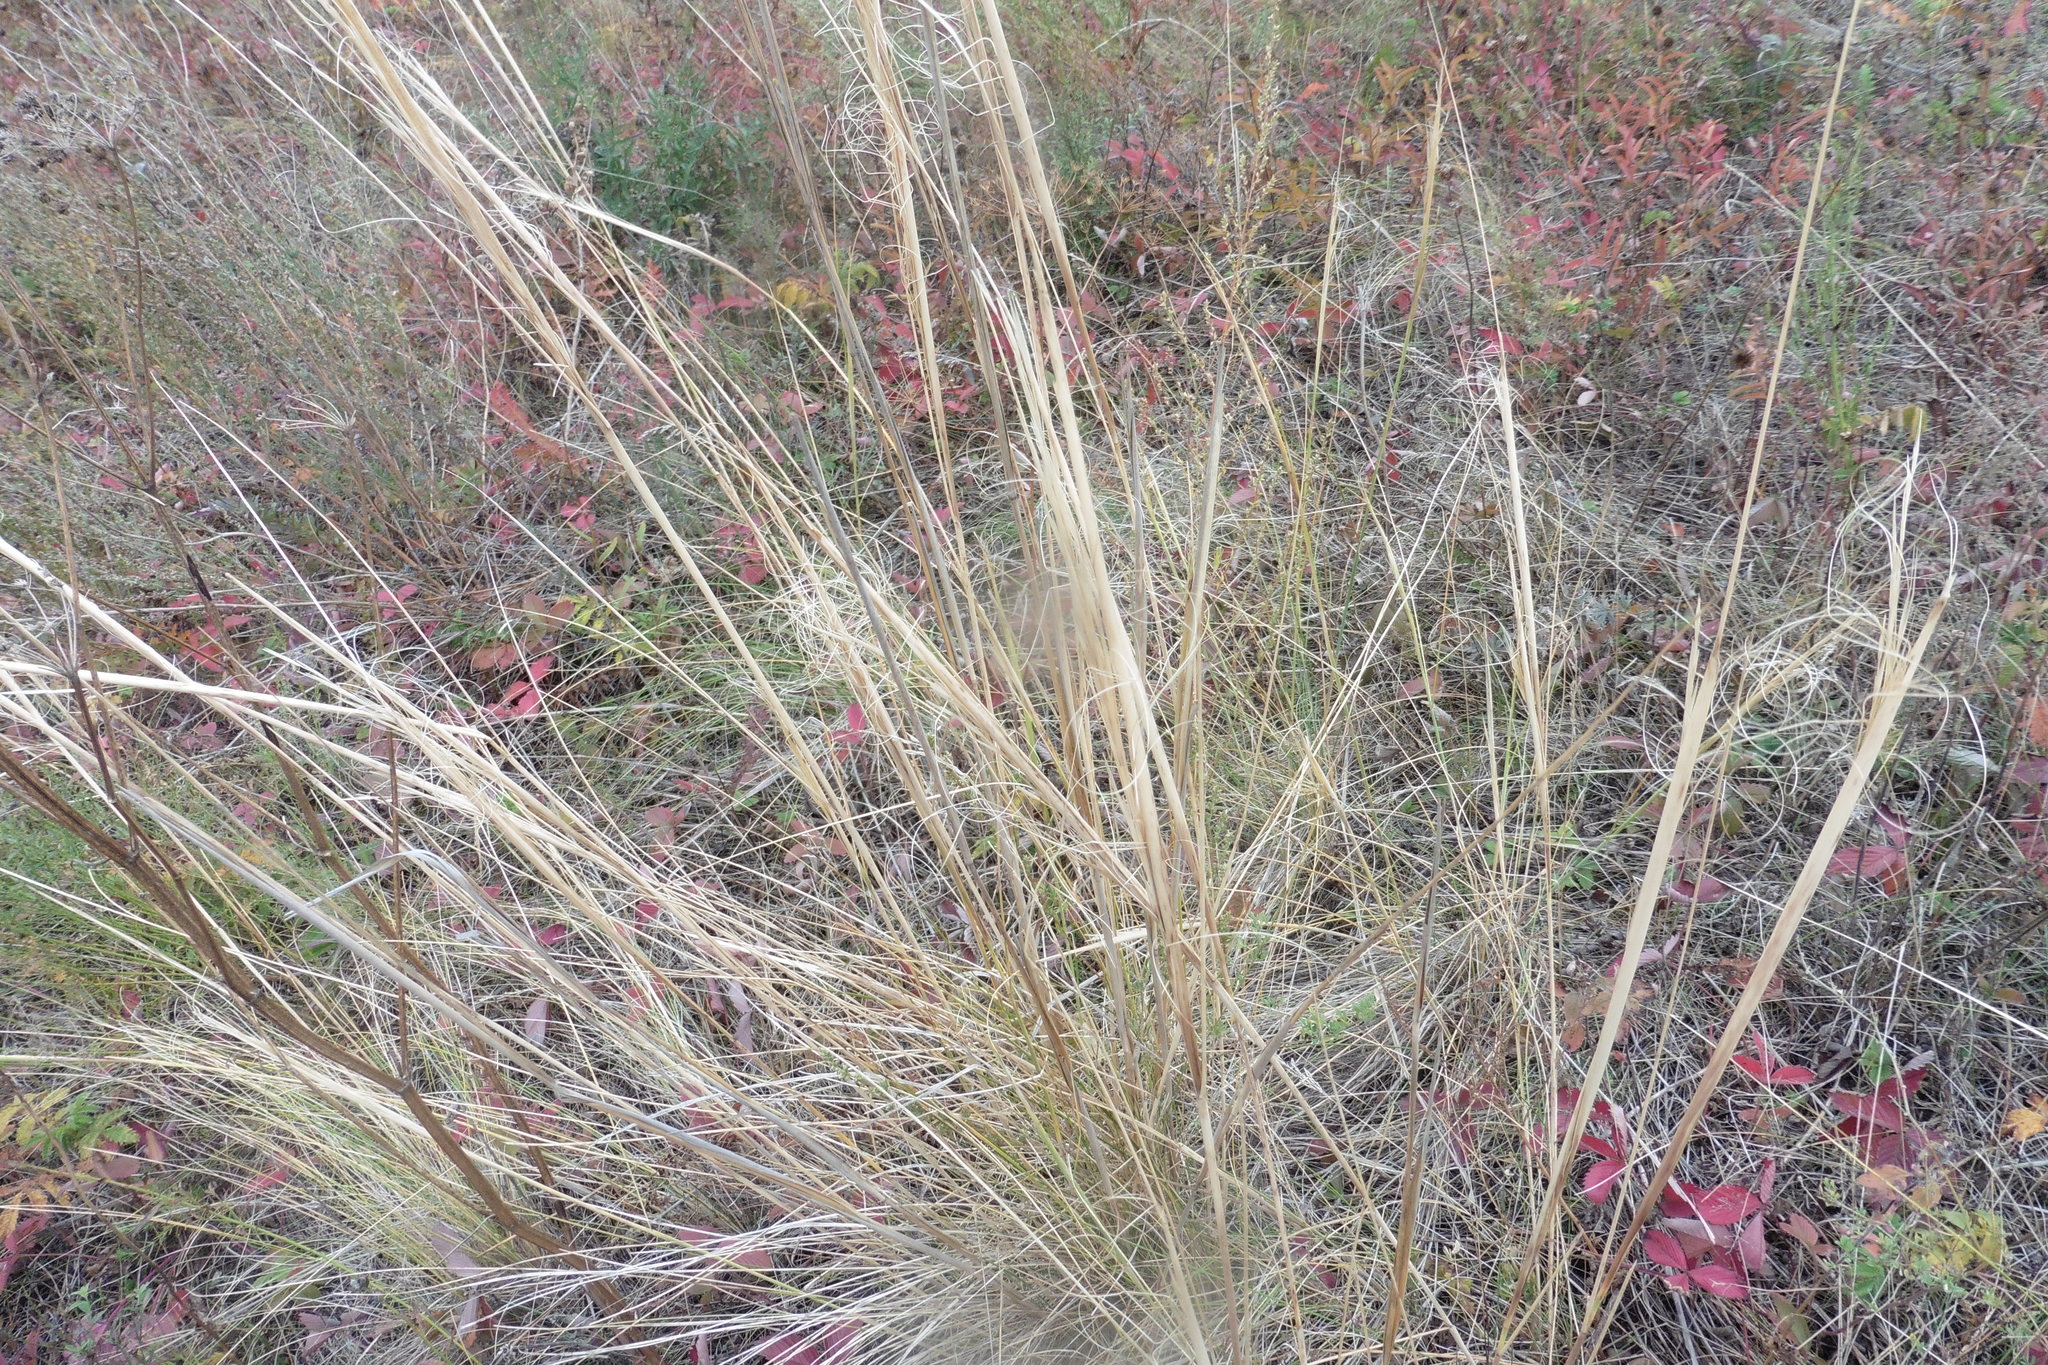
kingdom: Plantae
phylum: Tracheophyta
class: Liliopsida
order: Poales
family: Poaceae
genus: Stipa
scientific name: Stipa capillata
